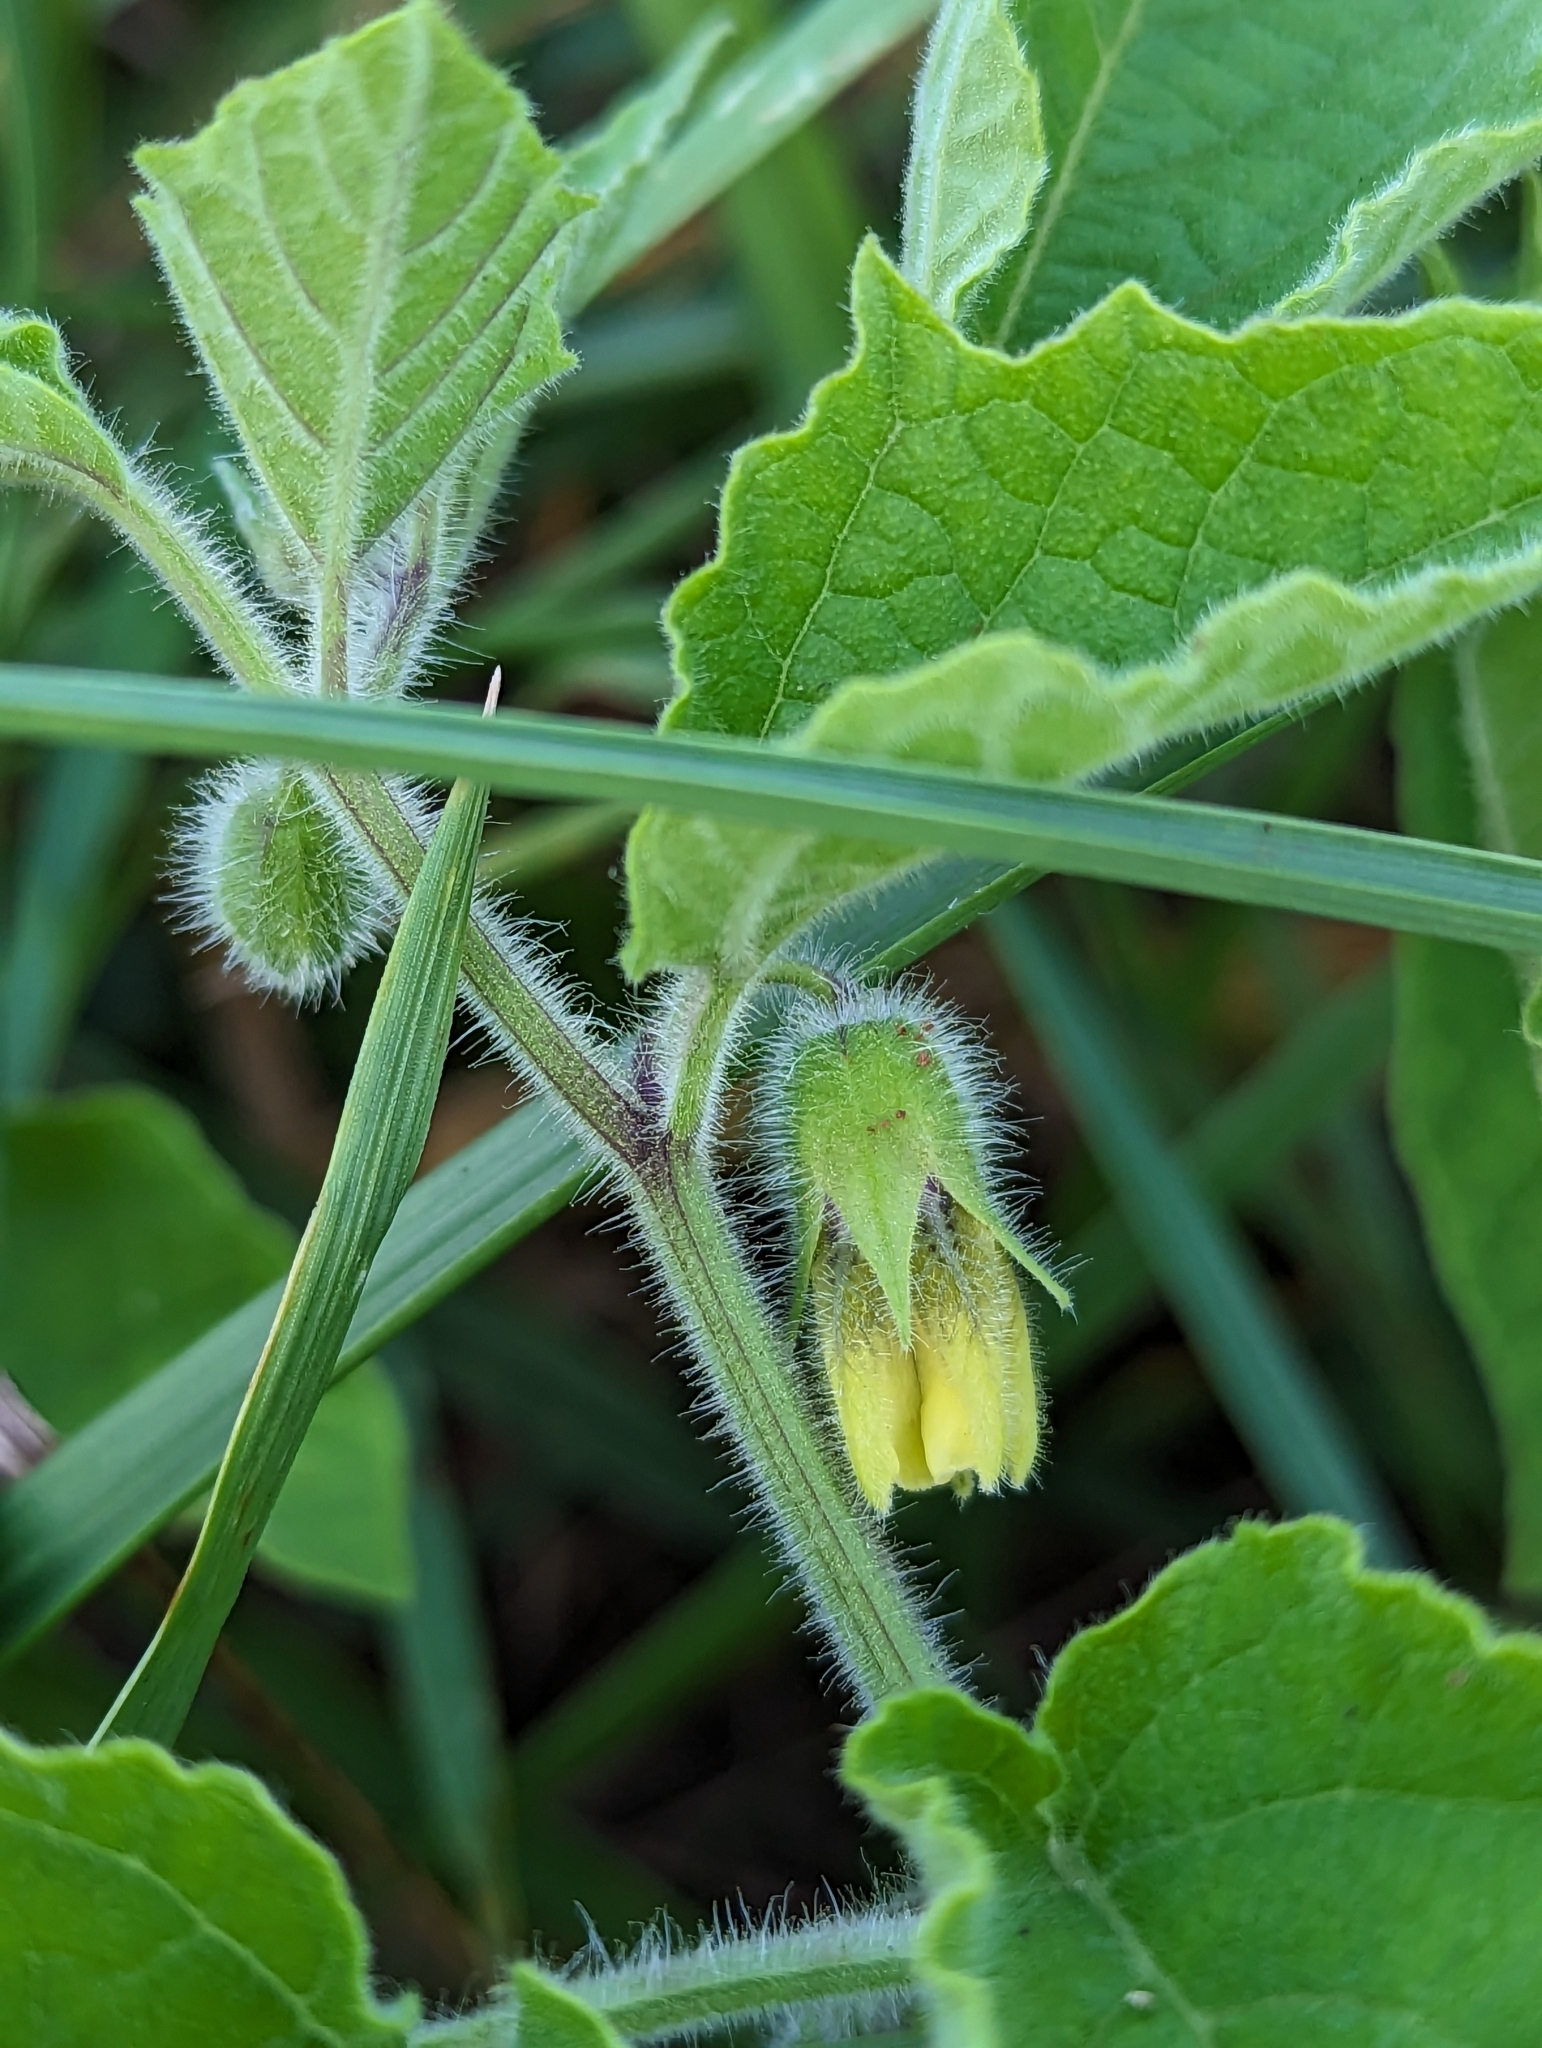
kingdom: Plantae
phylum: Tracheophyta
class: Magnoliopsida
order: Solanales
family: Solanaceae
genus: Physalis
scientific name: Physalis heterophylla
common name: Clammy ground-cherry
